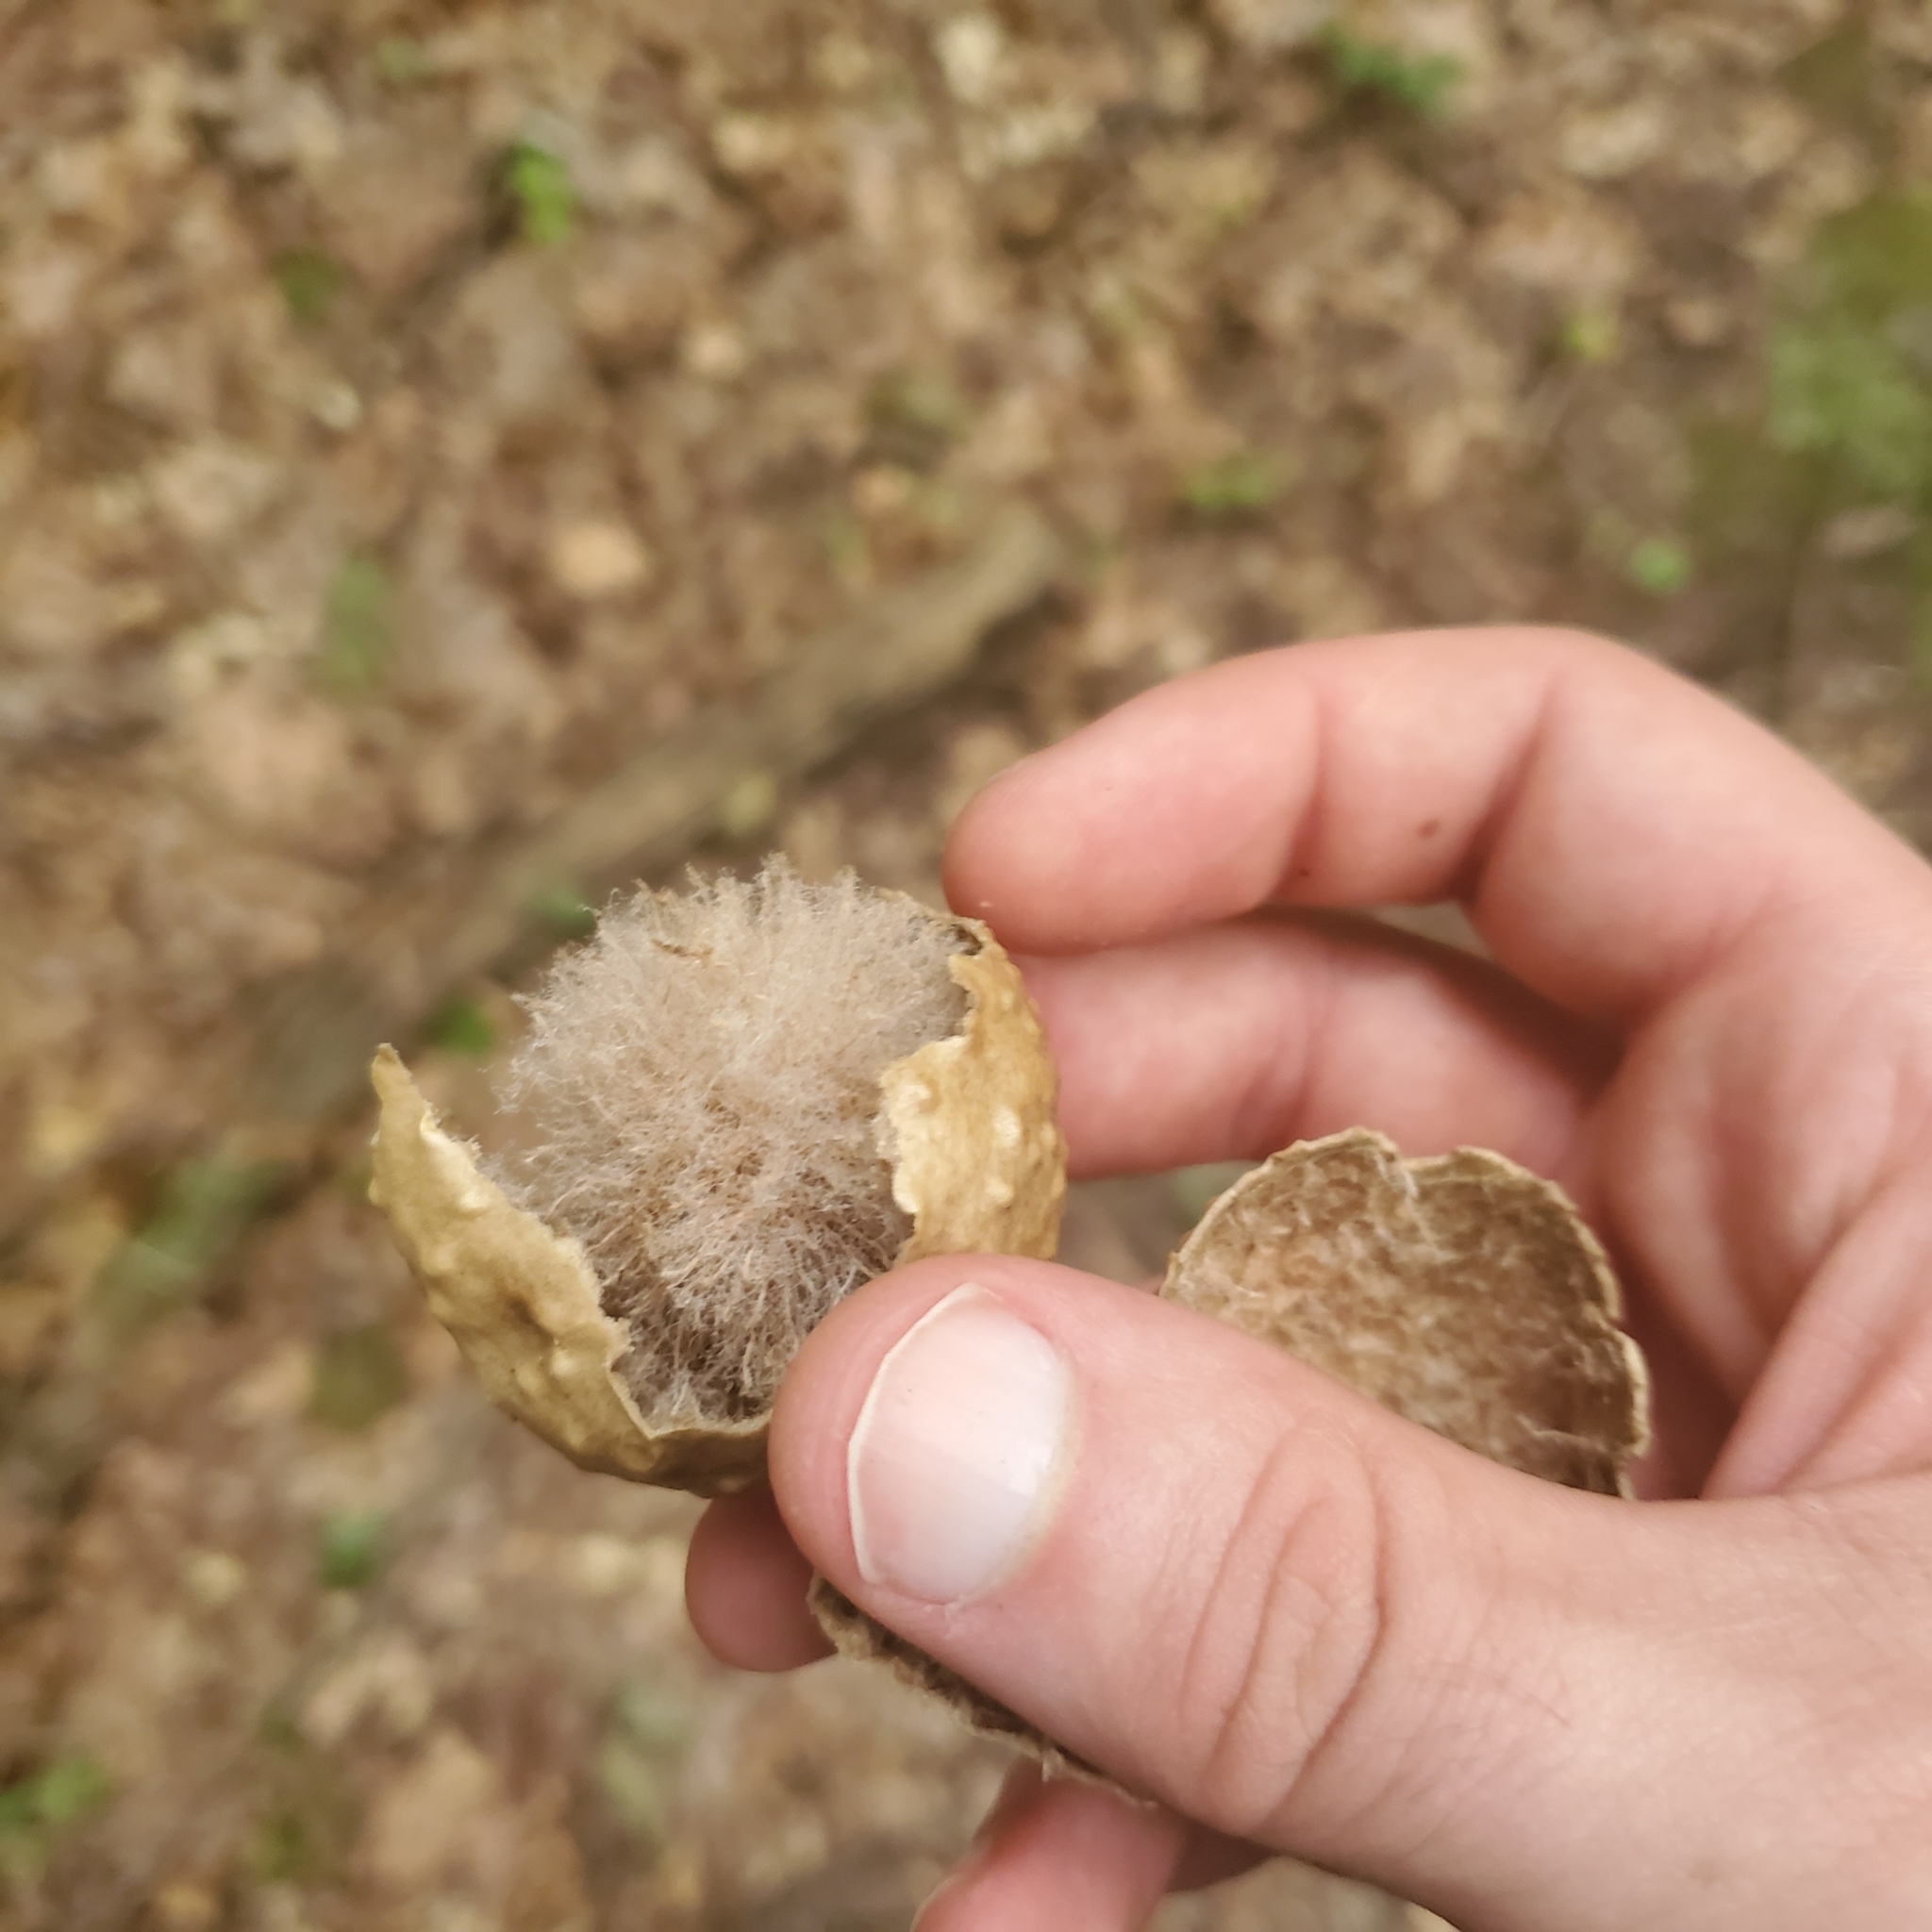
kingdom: Animalia
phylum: Arthropoda
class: Insecta
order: Hymenoptera
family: Cynipidae
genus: Amphibolips
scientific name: Amphibolips
